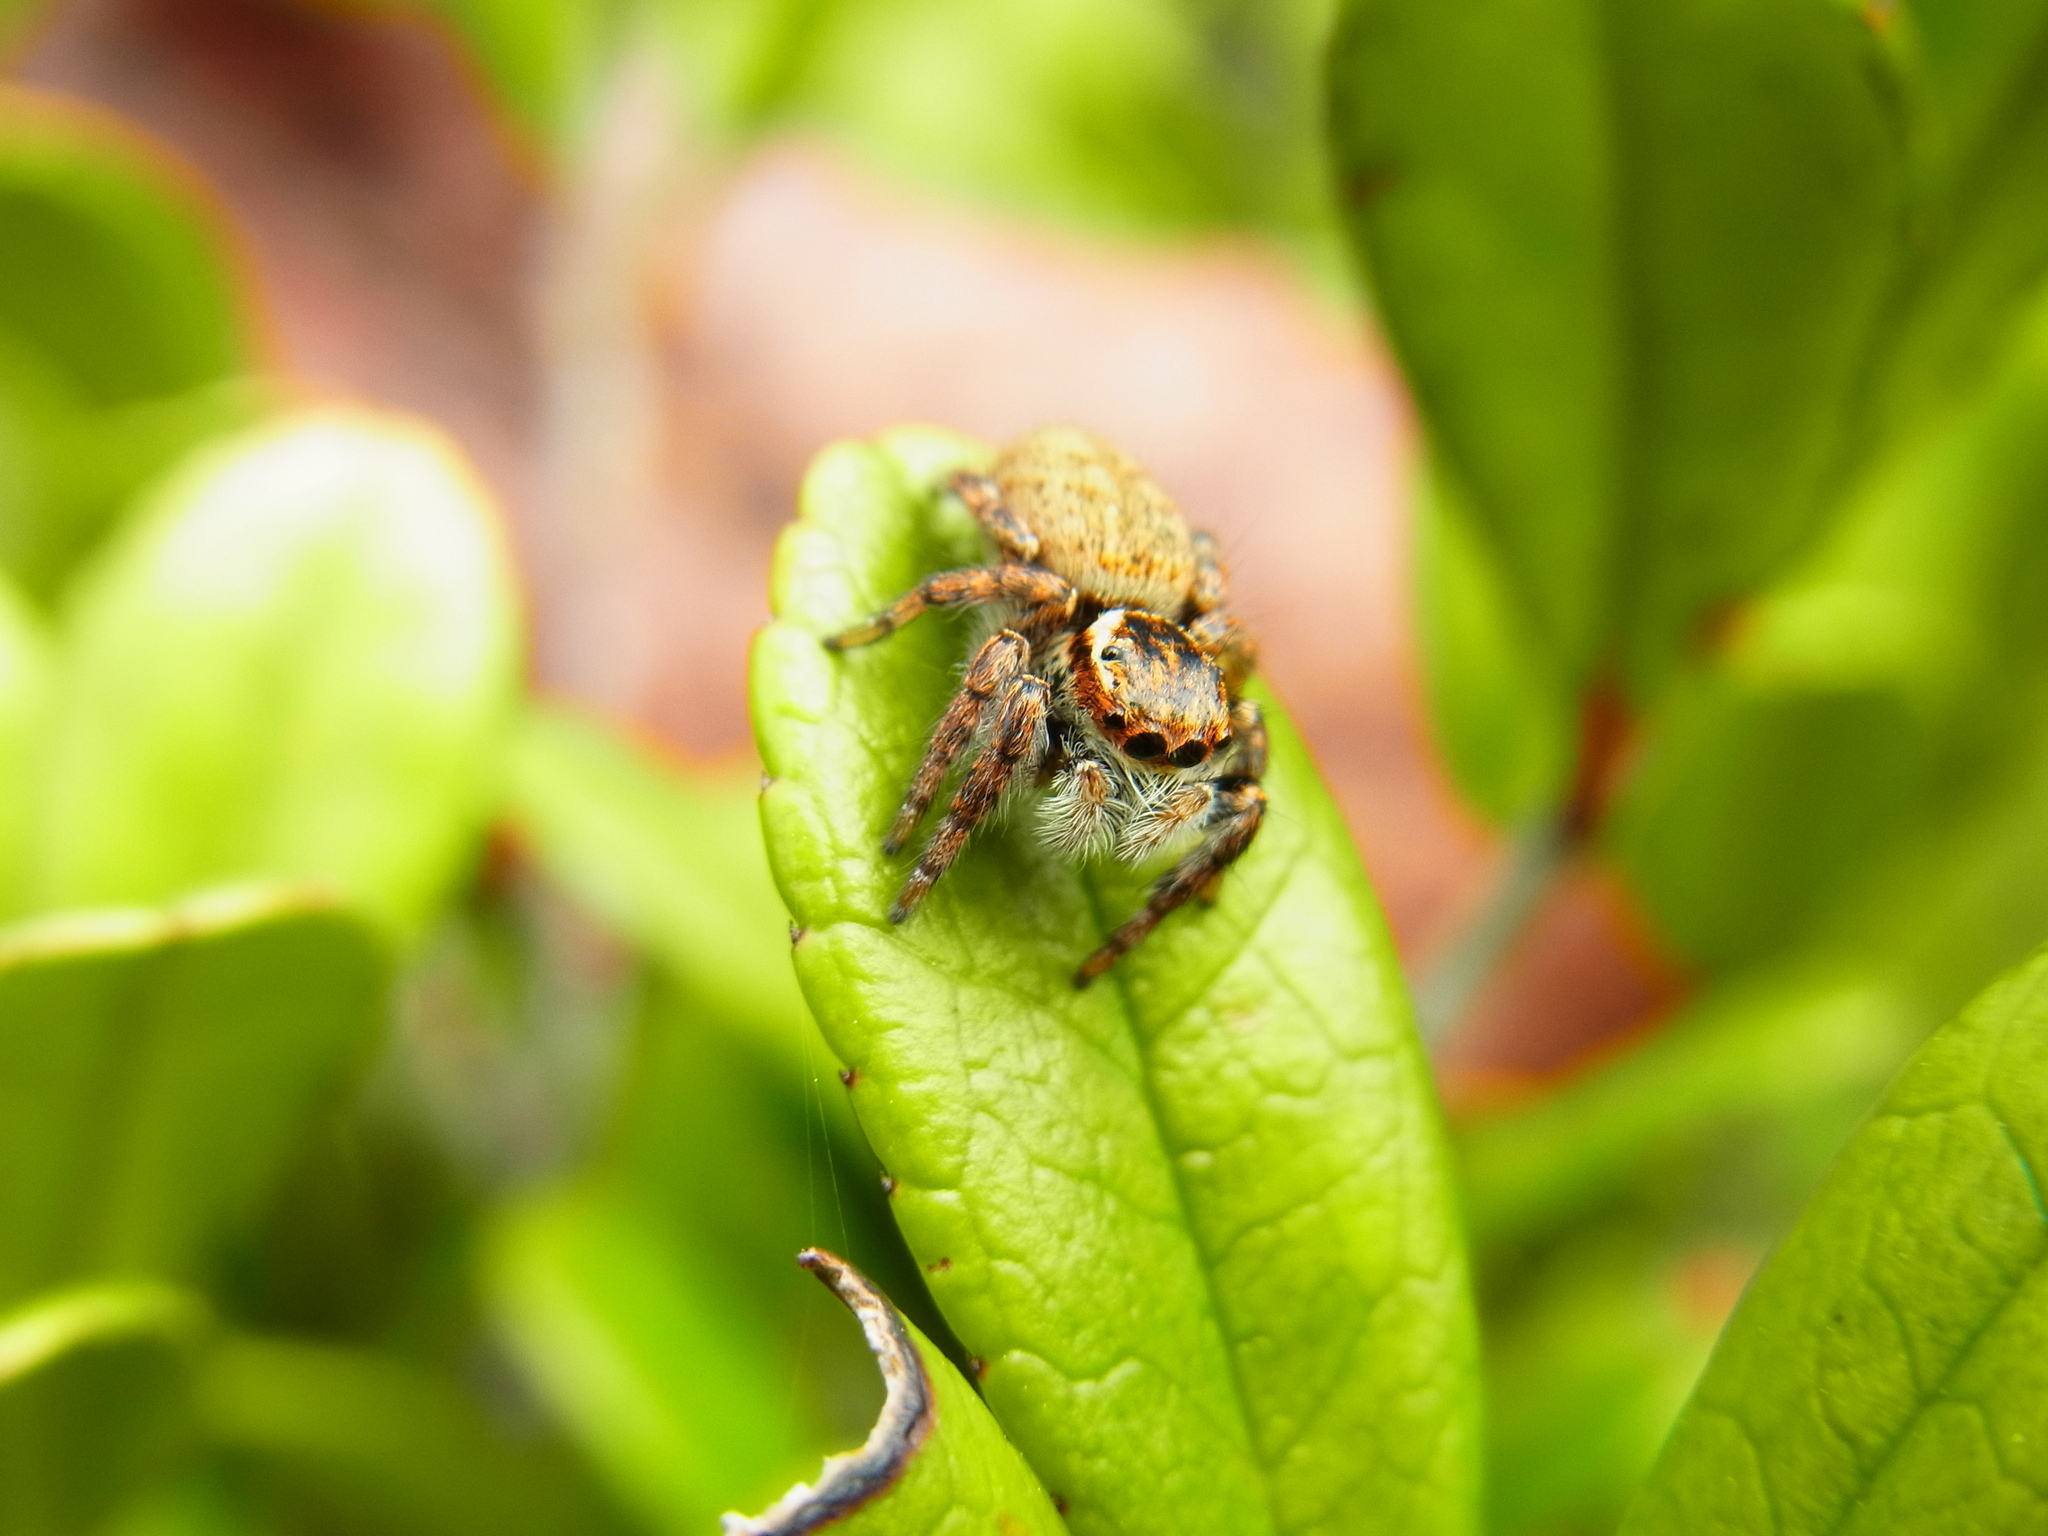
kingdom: Animalia
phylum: Arthropoda
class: Arachnida
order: Araneae
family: Salticidae
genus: Carrhotus
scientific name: Carrhotus xanthogramma
